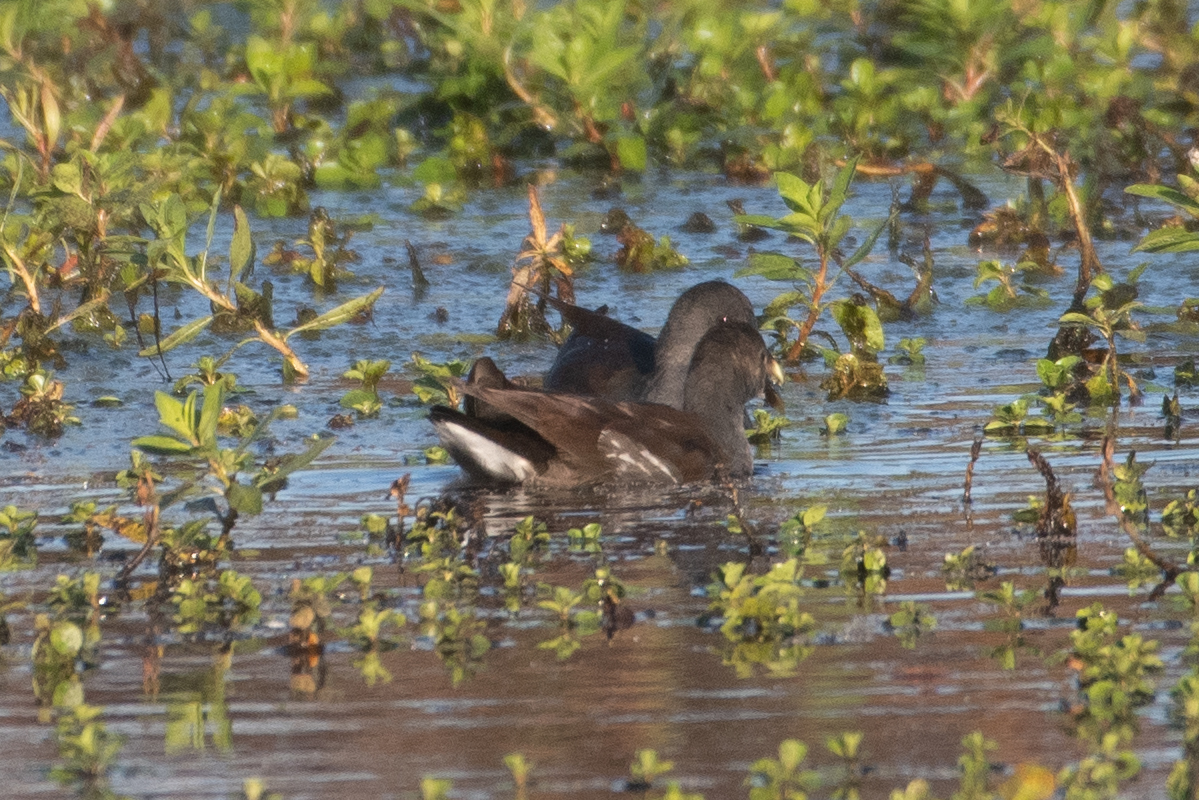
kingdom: Animalia
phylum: Chordata
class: Aves
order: Gruiformes
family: Rallidae
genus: Gallinula
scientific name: Gallinula chloropus
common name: Common moorhen
